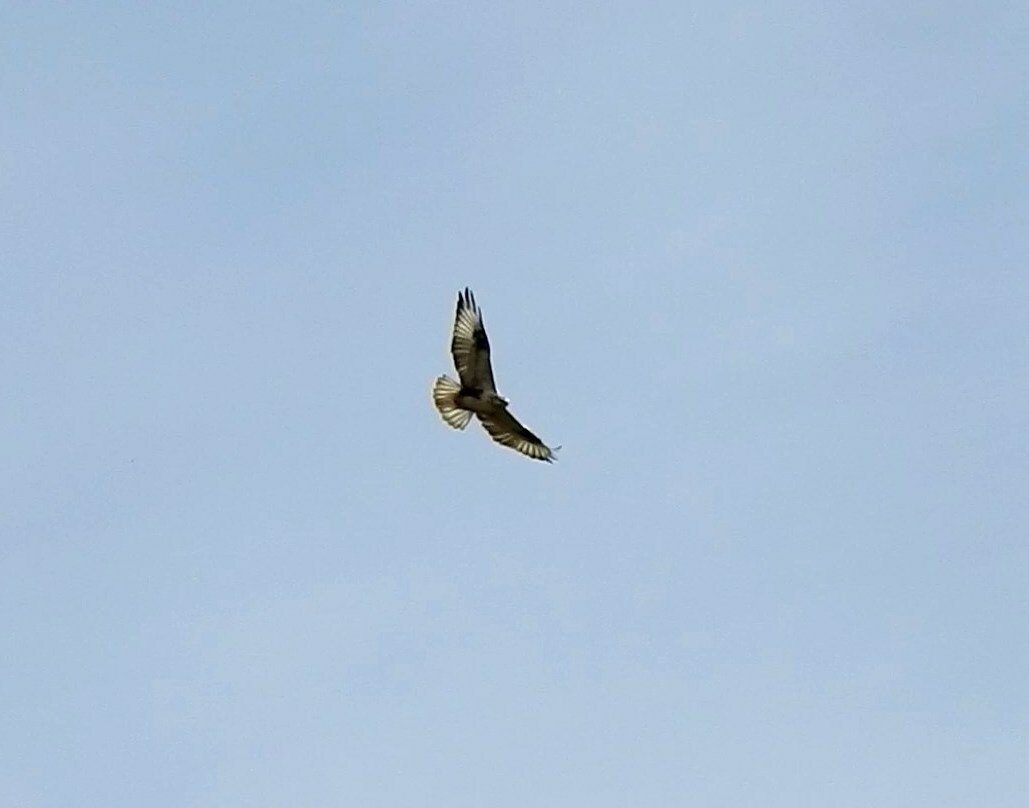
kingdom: Animalia
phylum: Chordata
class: Aves
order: Accipitriformes
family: Accipitridae
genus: Buteo
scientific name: Buteo hemilasius
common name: Upland buzzard
